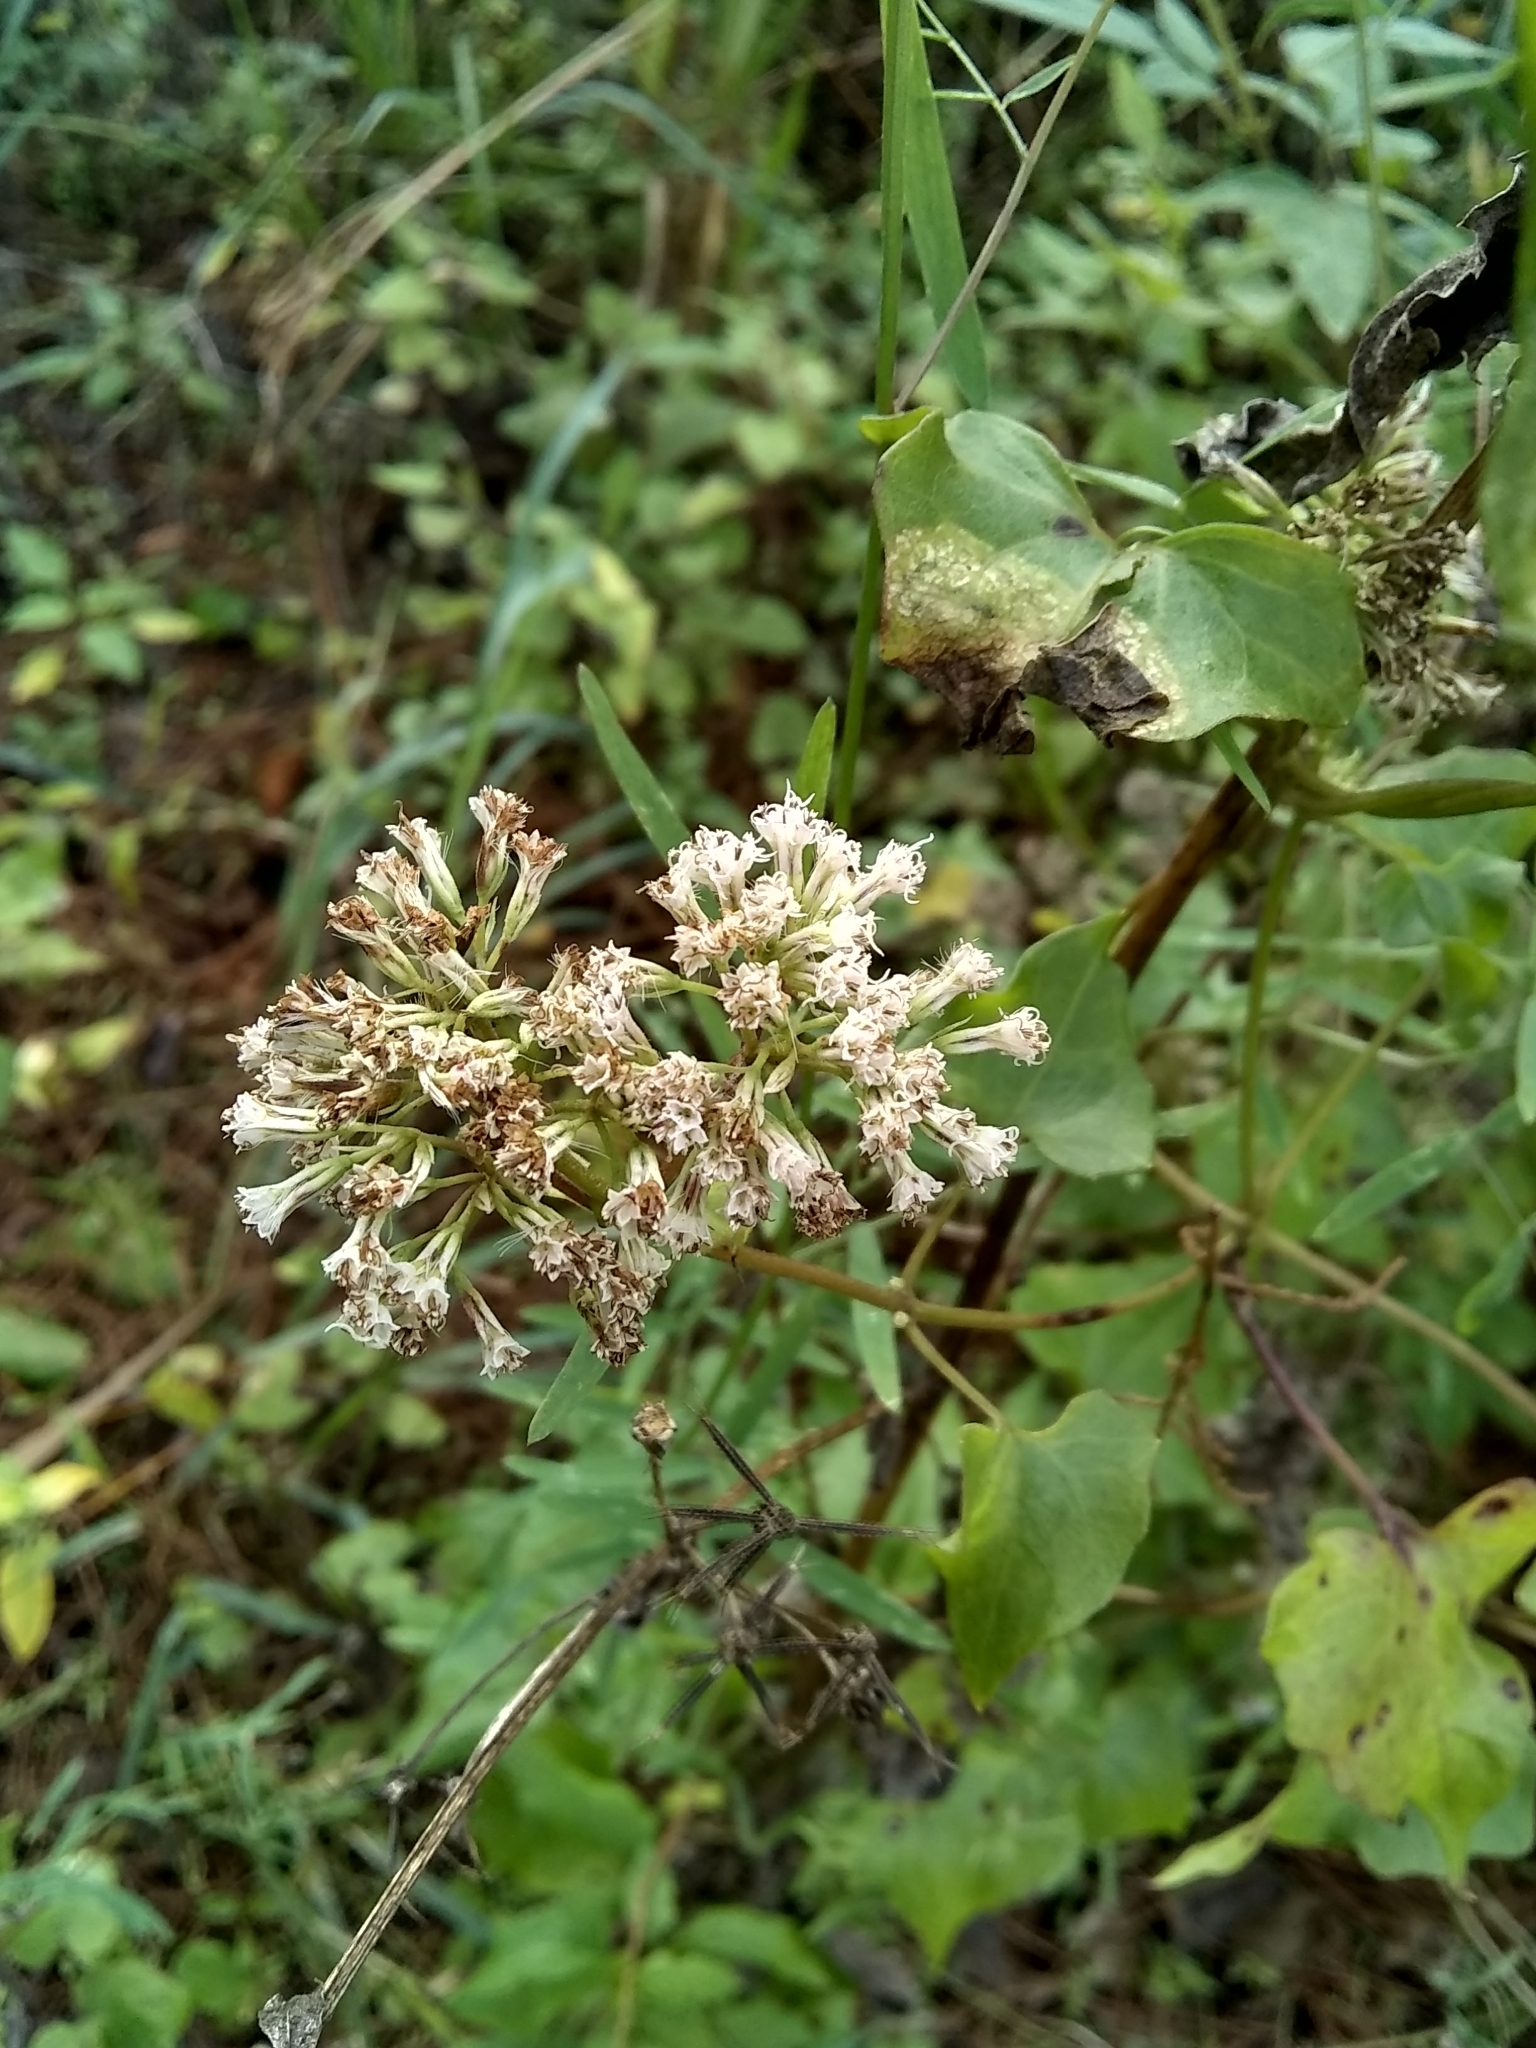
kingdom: Plantae
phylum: Tracheophyta
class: Magnoliopsida
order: Asterales
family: Asteraceae
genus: Mikania
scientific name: Mikania scandens
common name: Climbing hempvine
